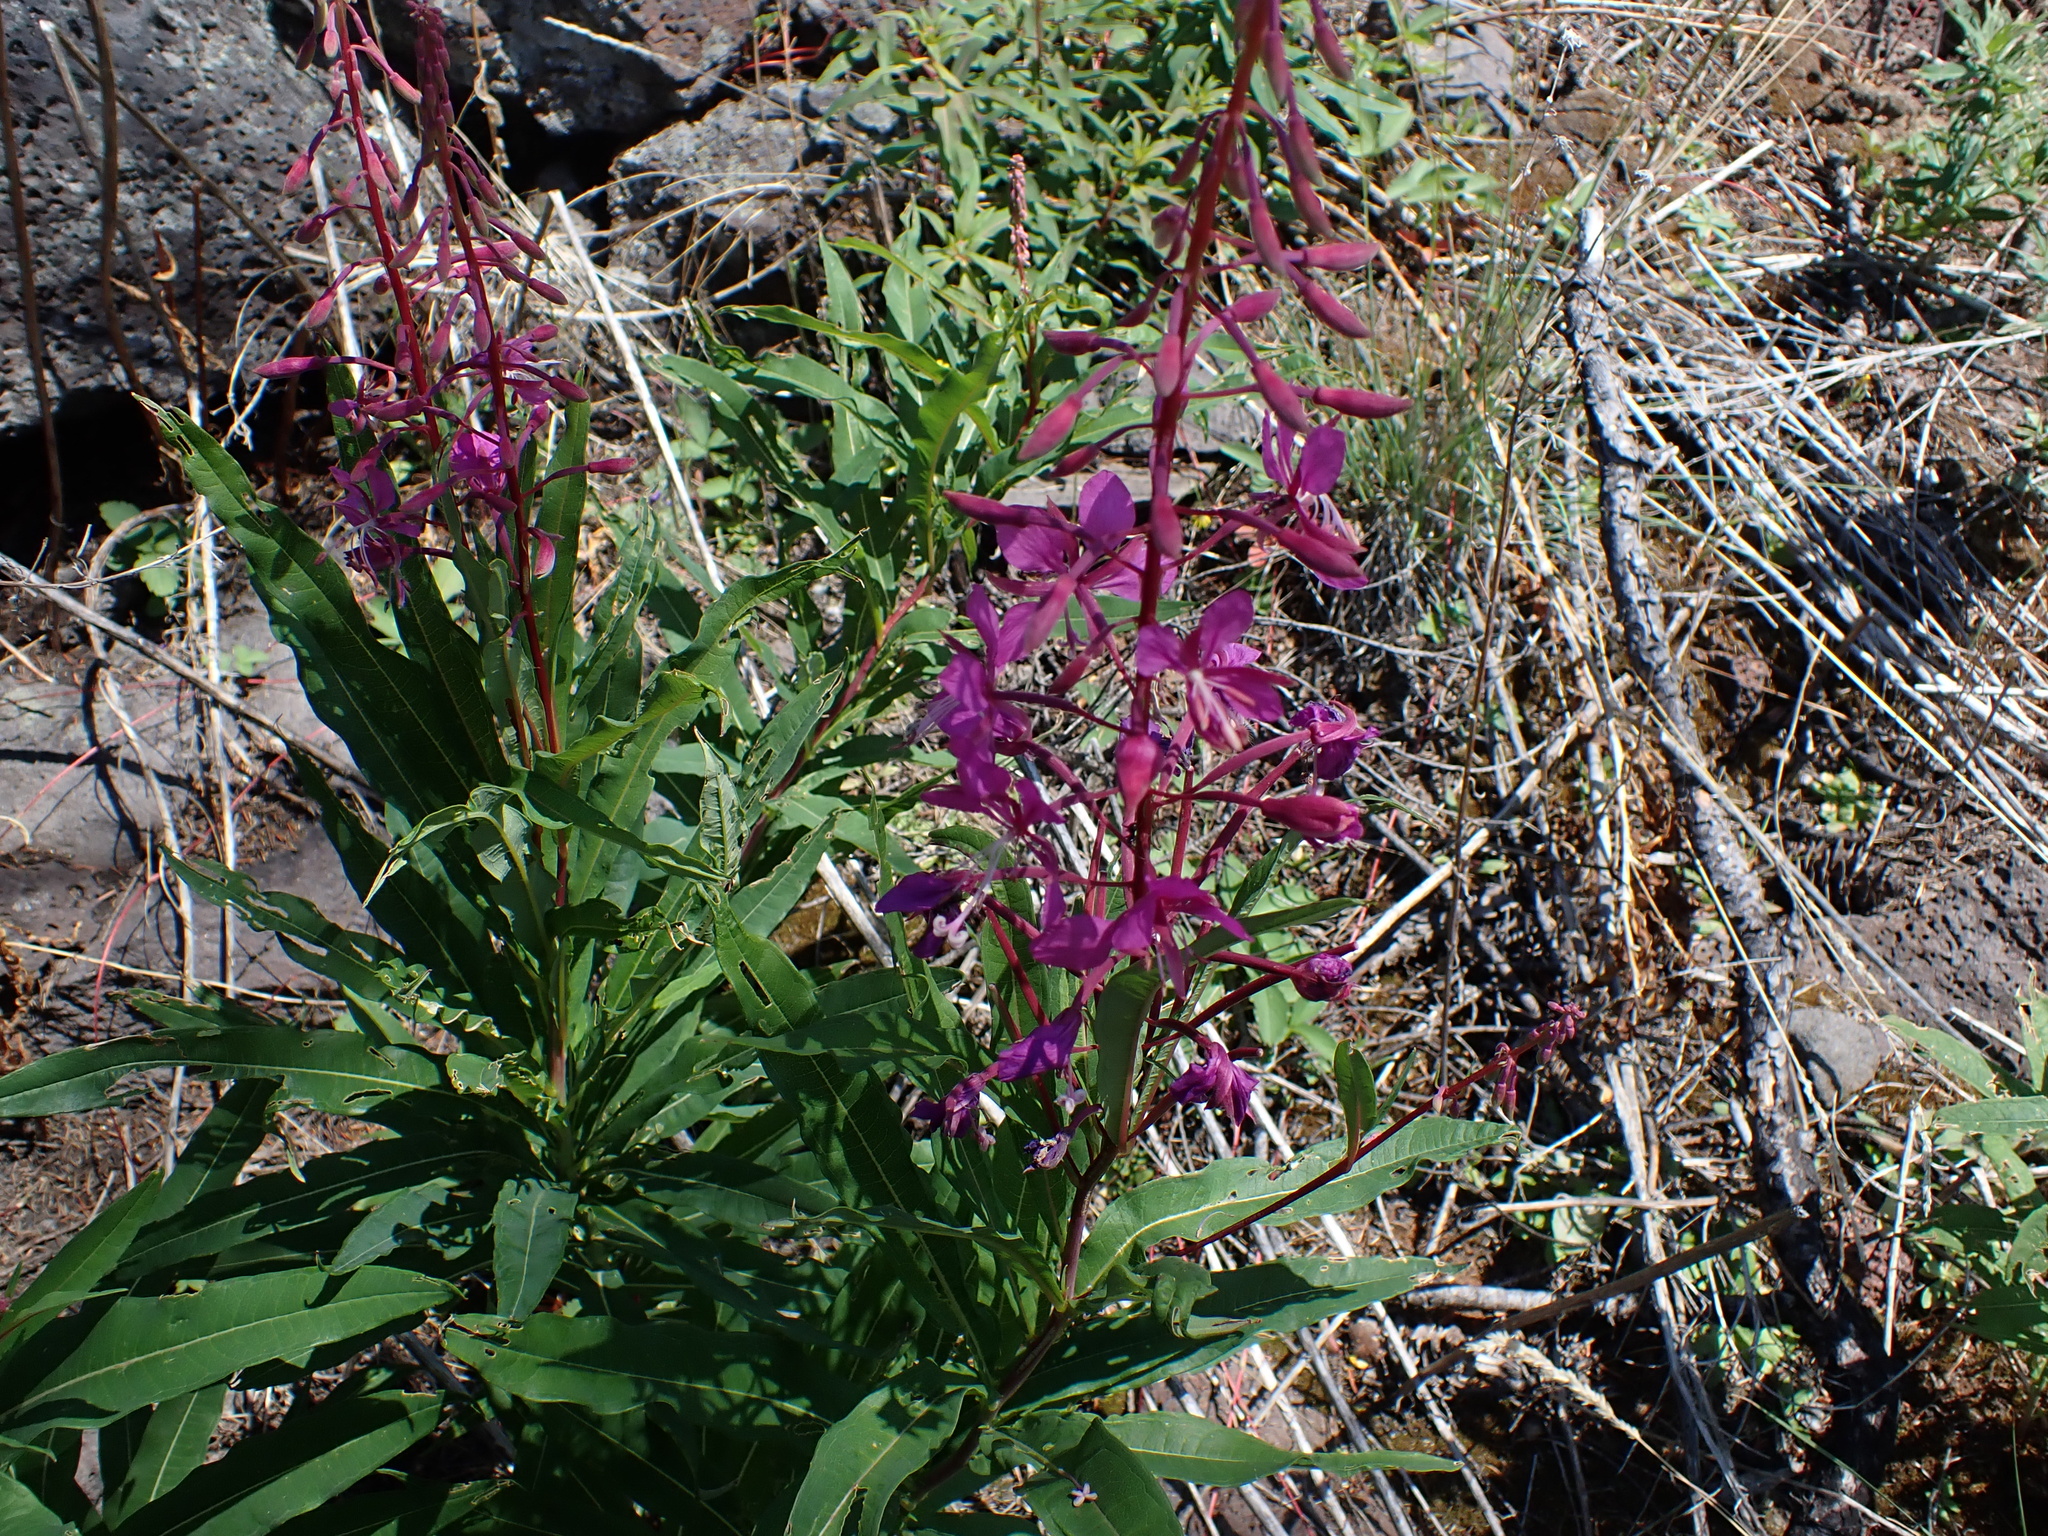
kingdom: Plantae
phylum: Tracheophyta
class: Magnoliopsida
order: Myrtales
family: Onagraceae
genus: Chamaenerion
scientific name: Chamaenerion angustifolium
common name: Fireweed
